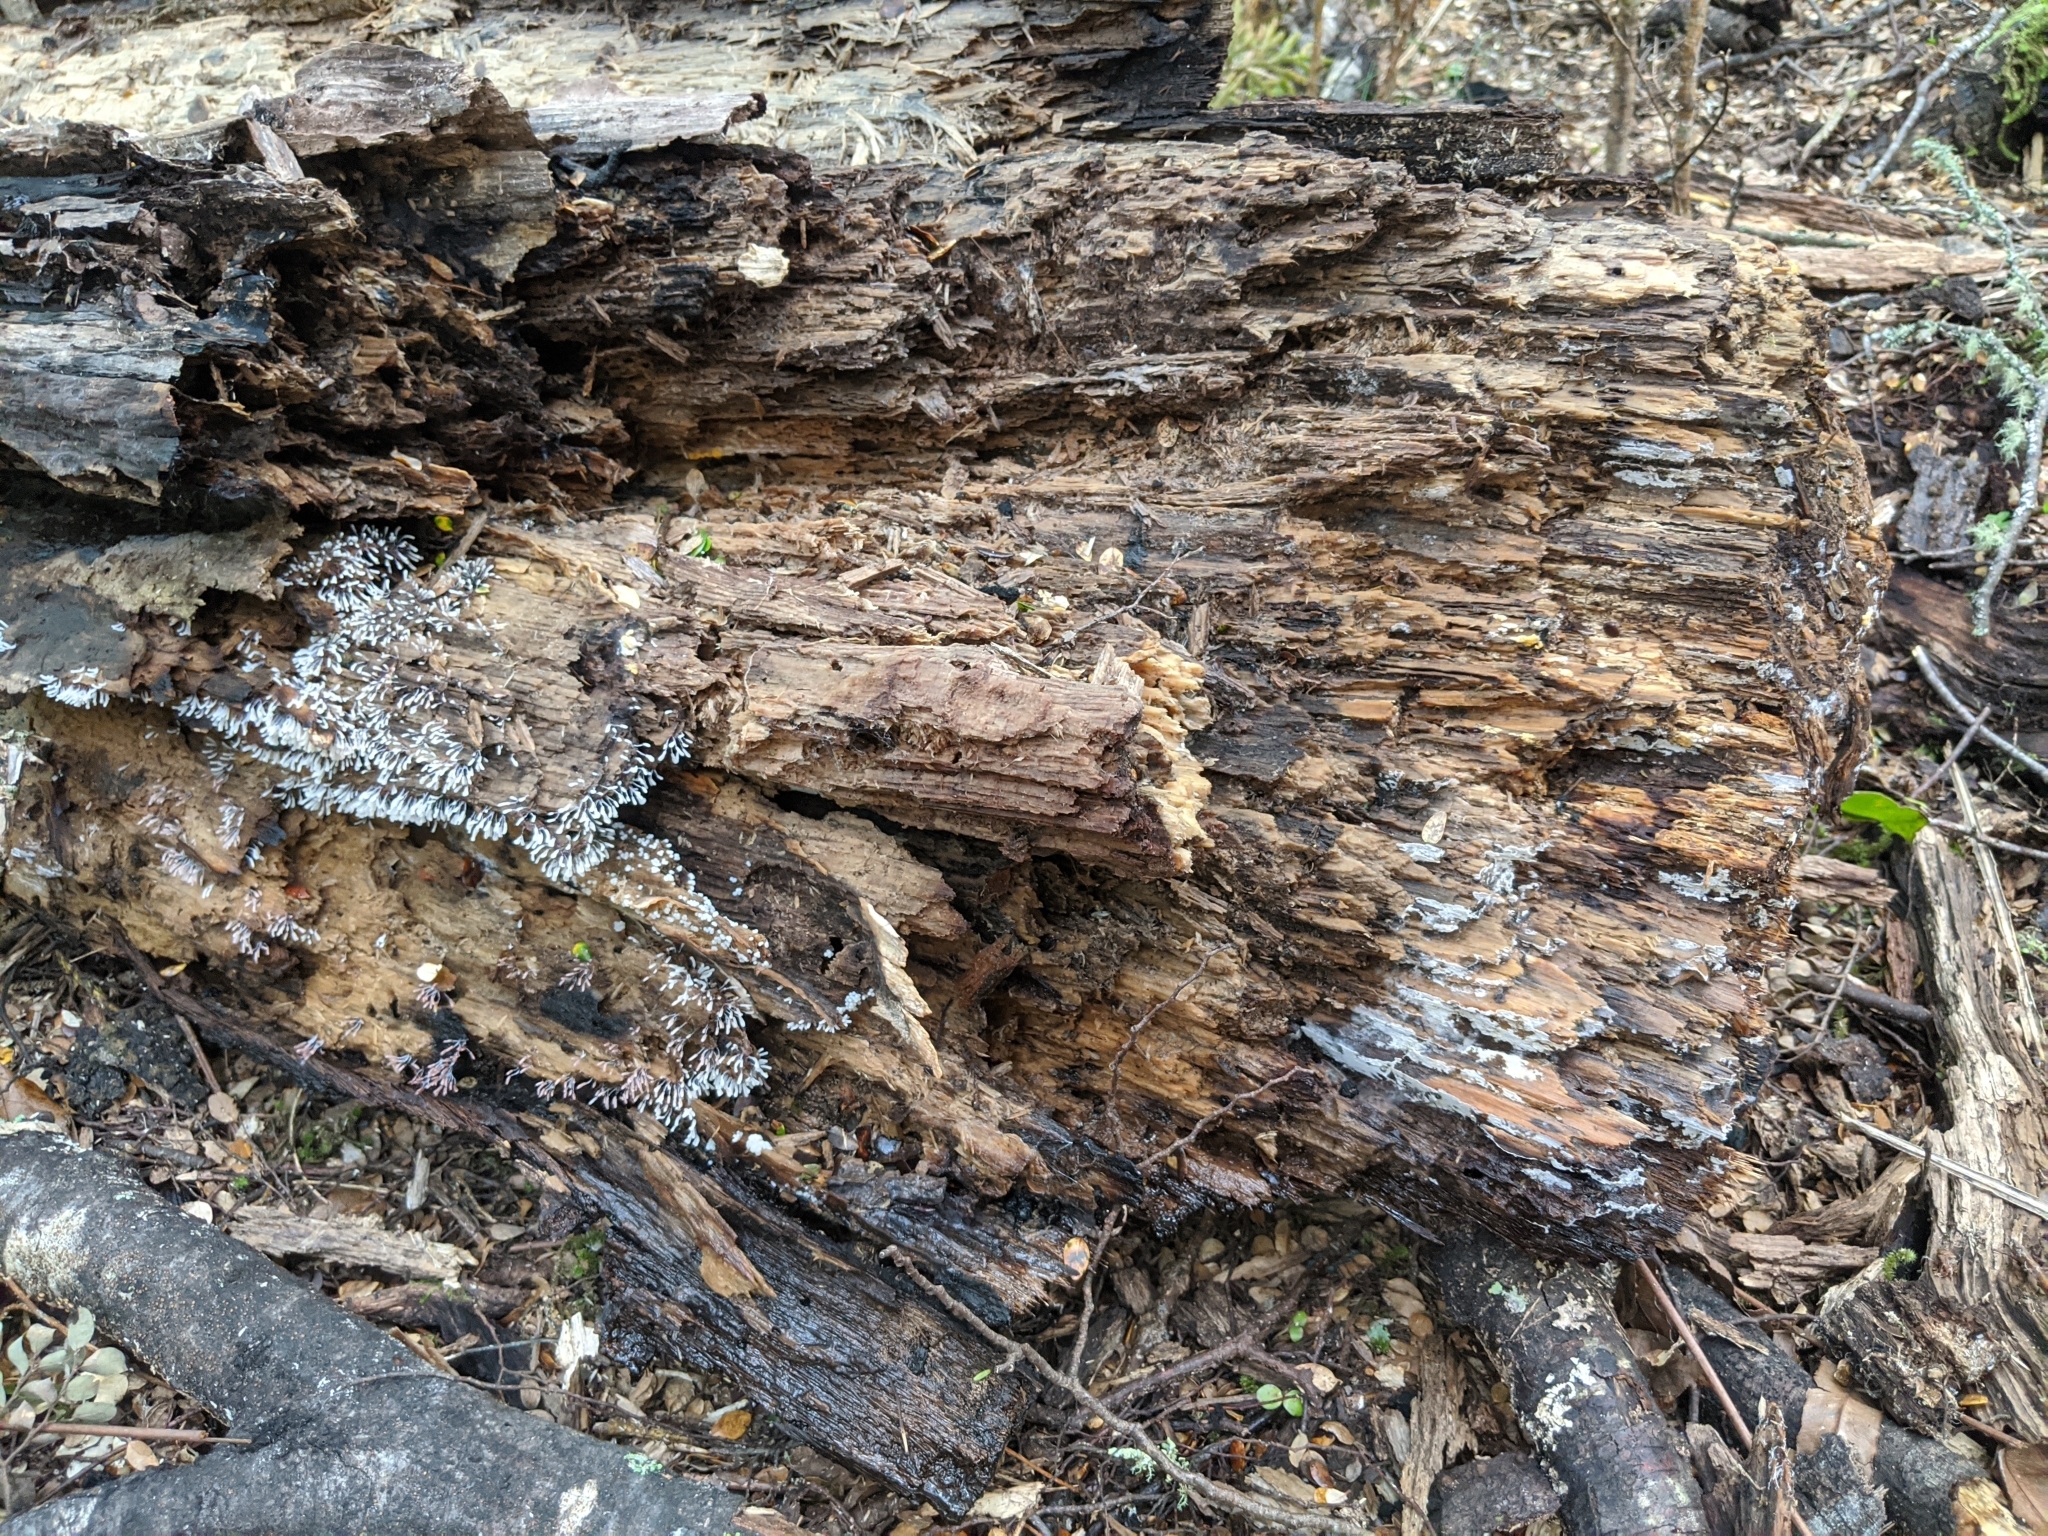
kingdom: Protozoa
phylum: Mycetozoa
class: Myxomycetes
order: Stemonitidales
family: Stemonitidaceae
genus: Stemonitopsis
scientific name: Stemonitopsis typhina
